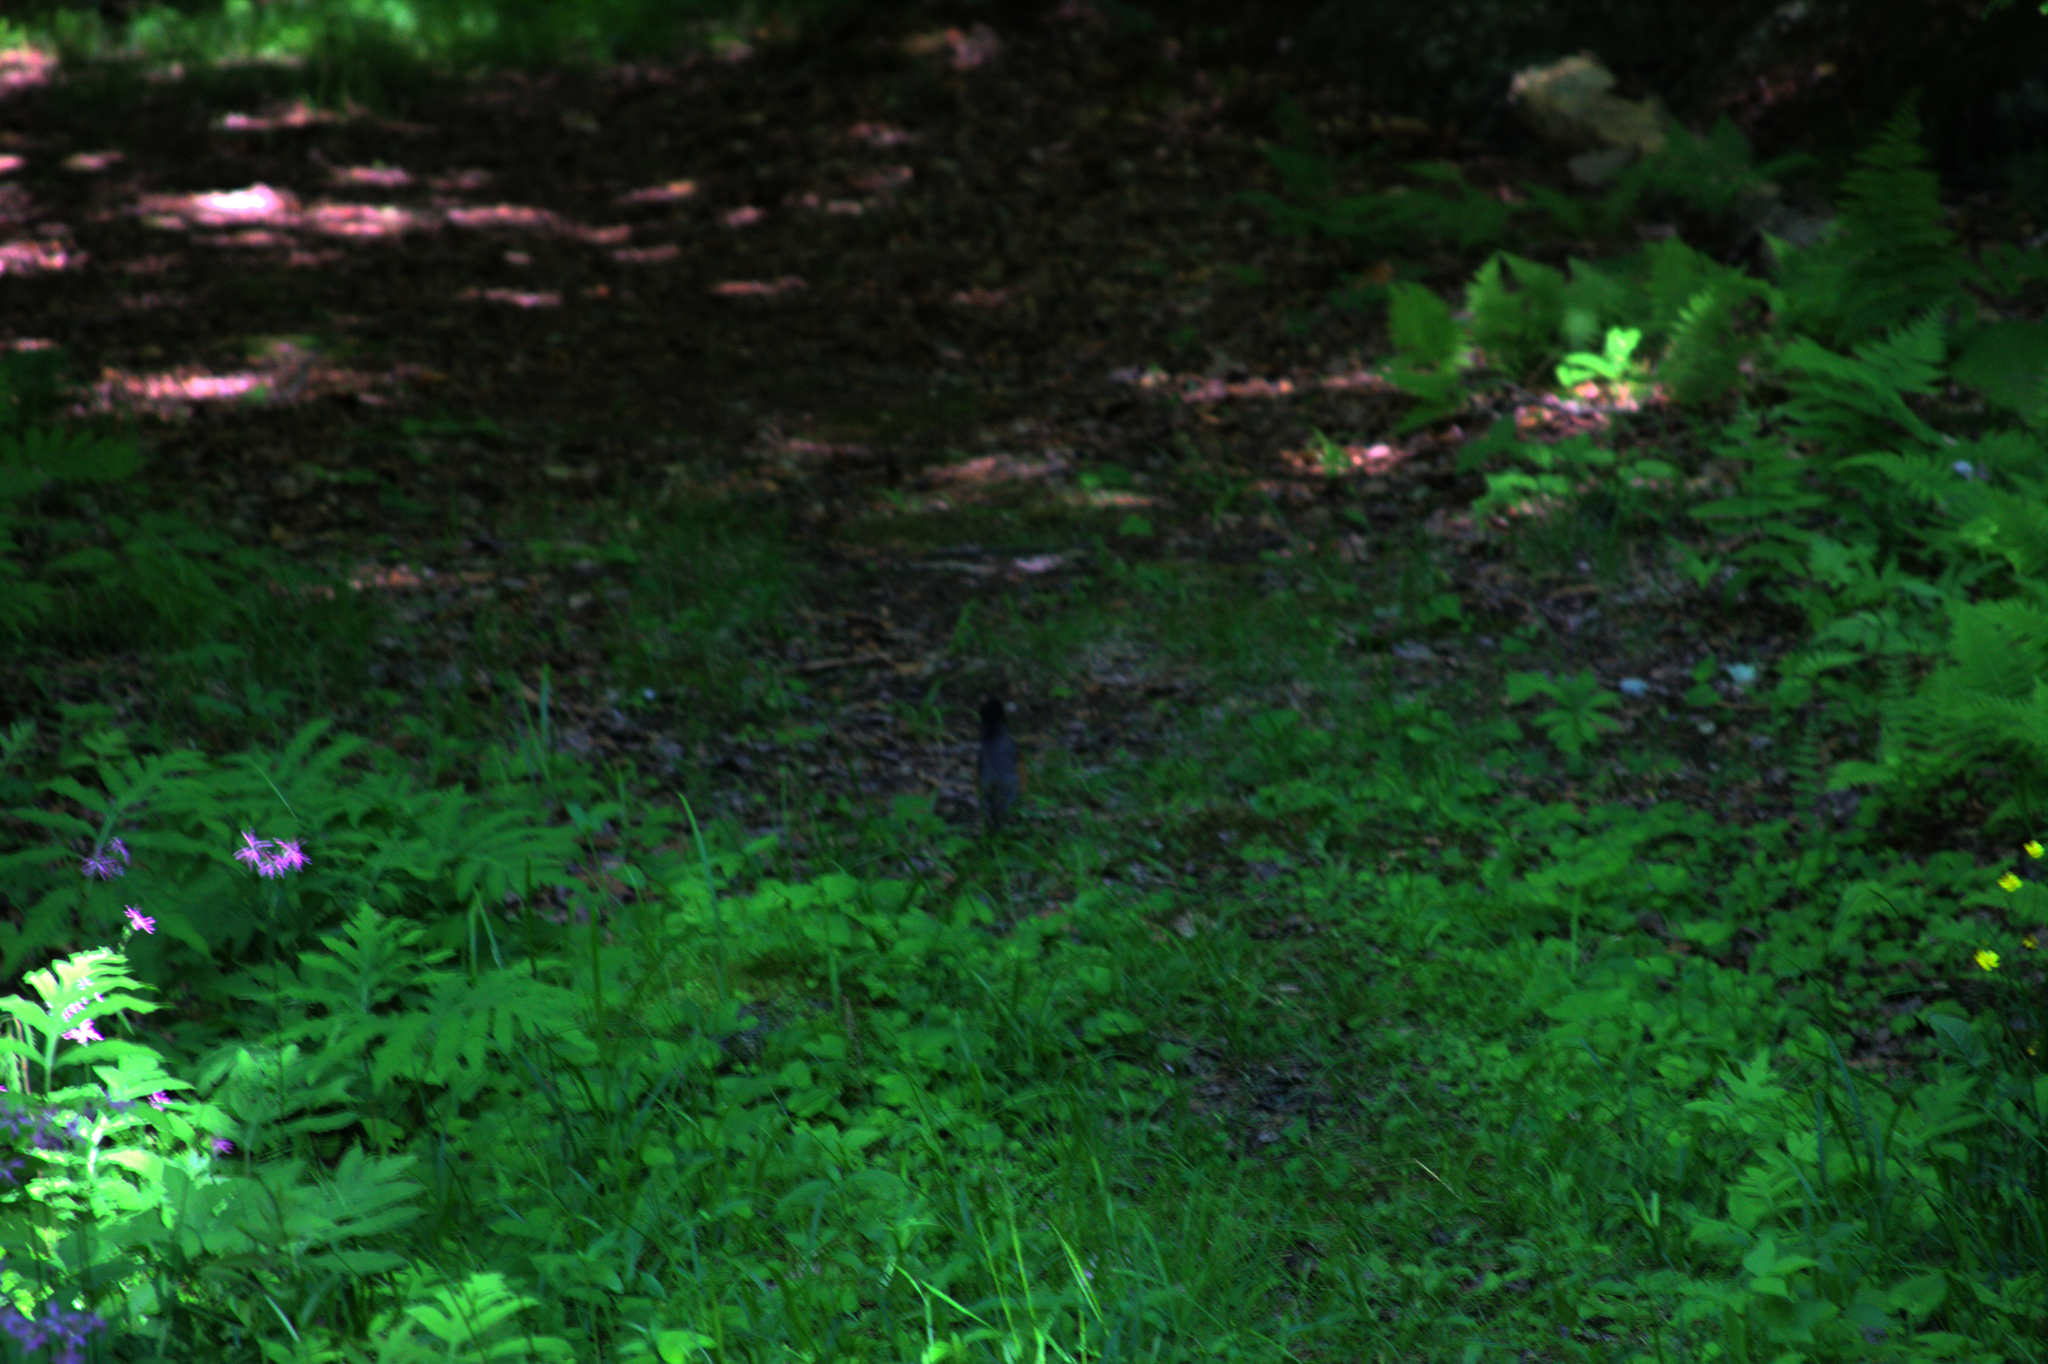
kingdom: Animalia
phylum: Chordata
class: Aves
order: Passeriformes
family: Turdidae
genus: Turdus
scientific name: Turdus migratorius
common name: American robin
